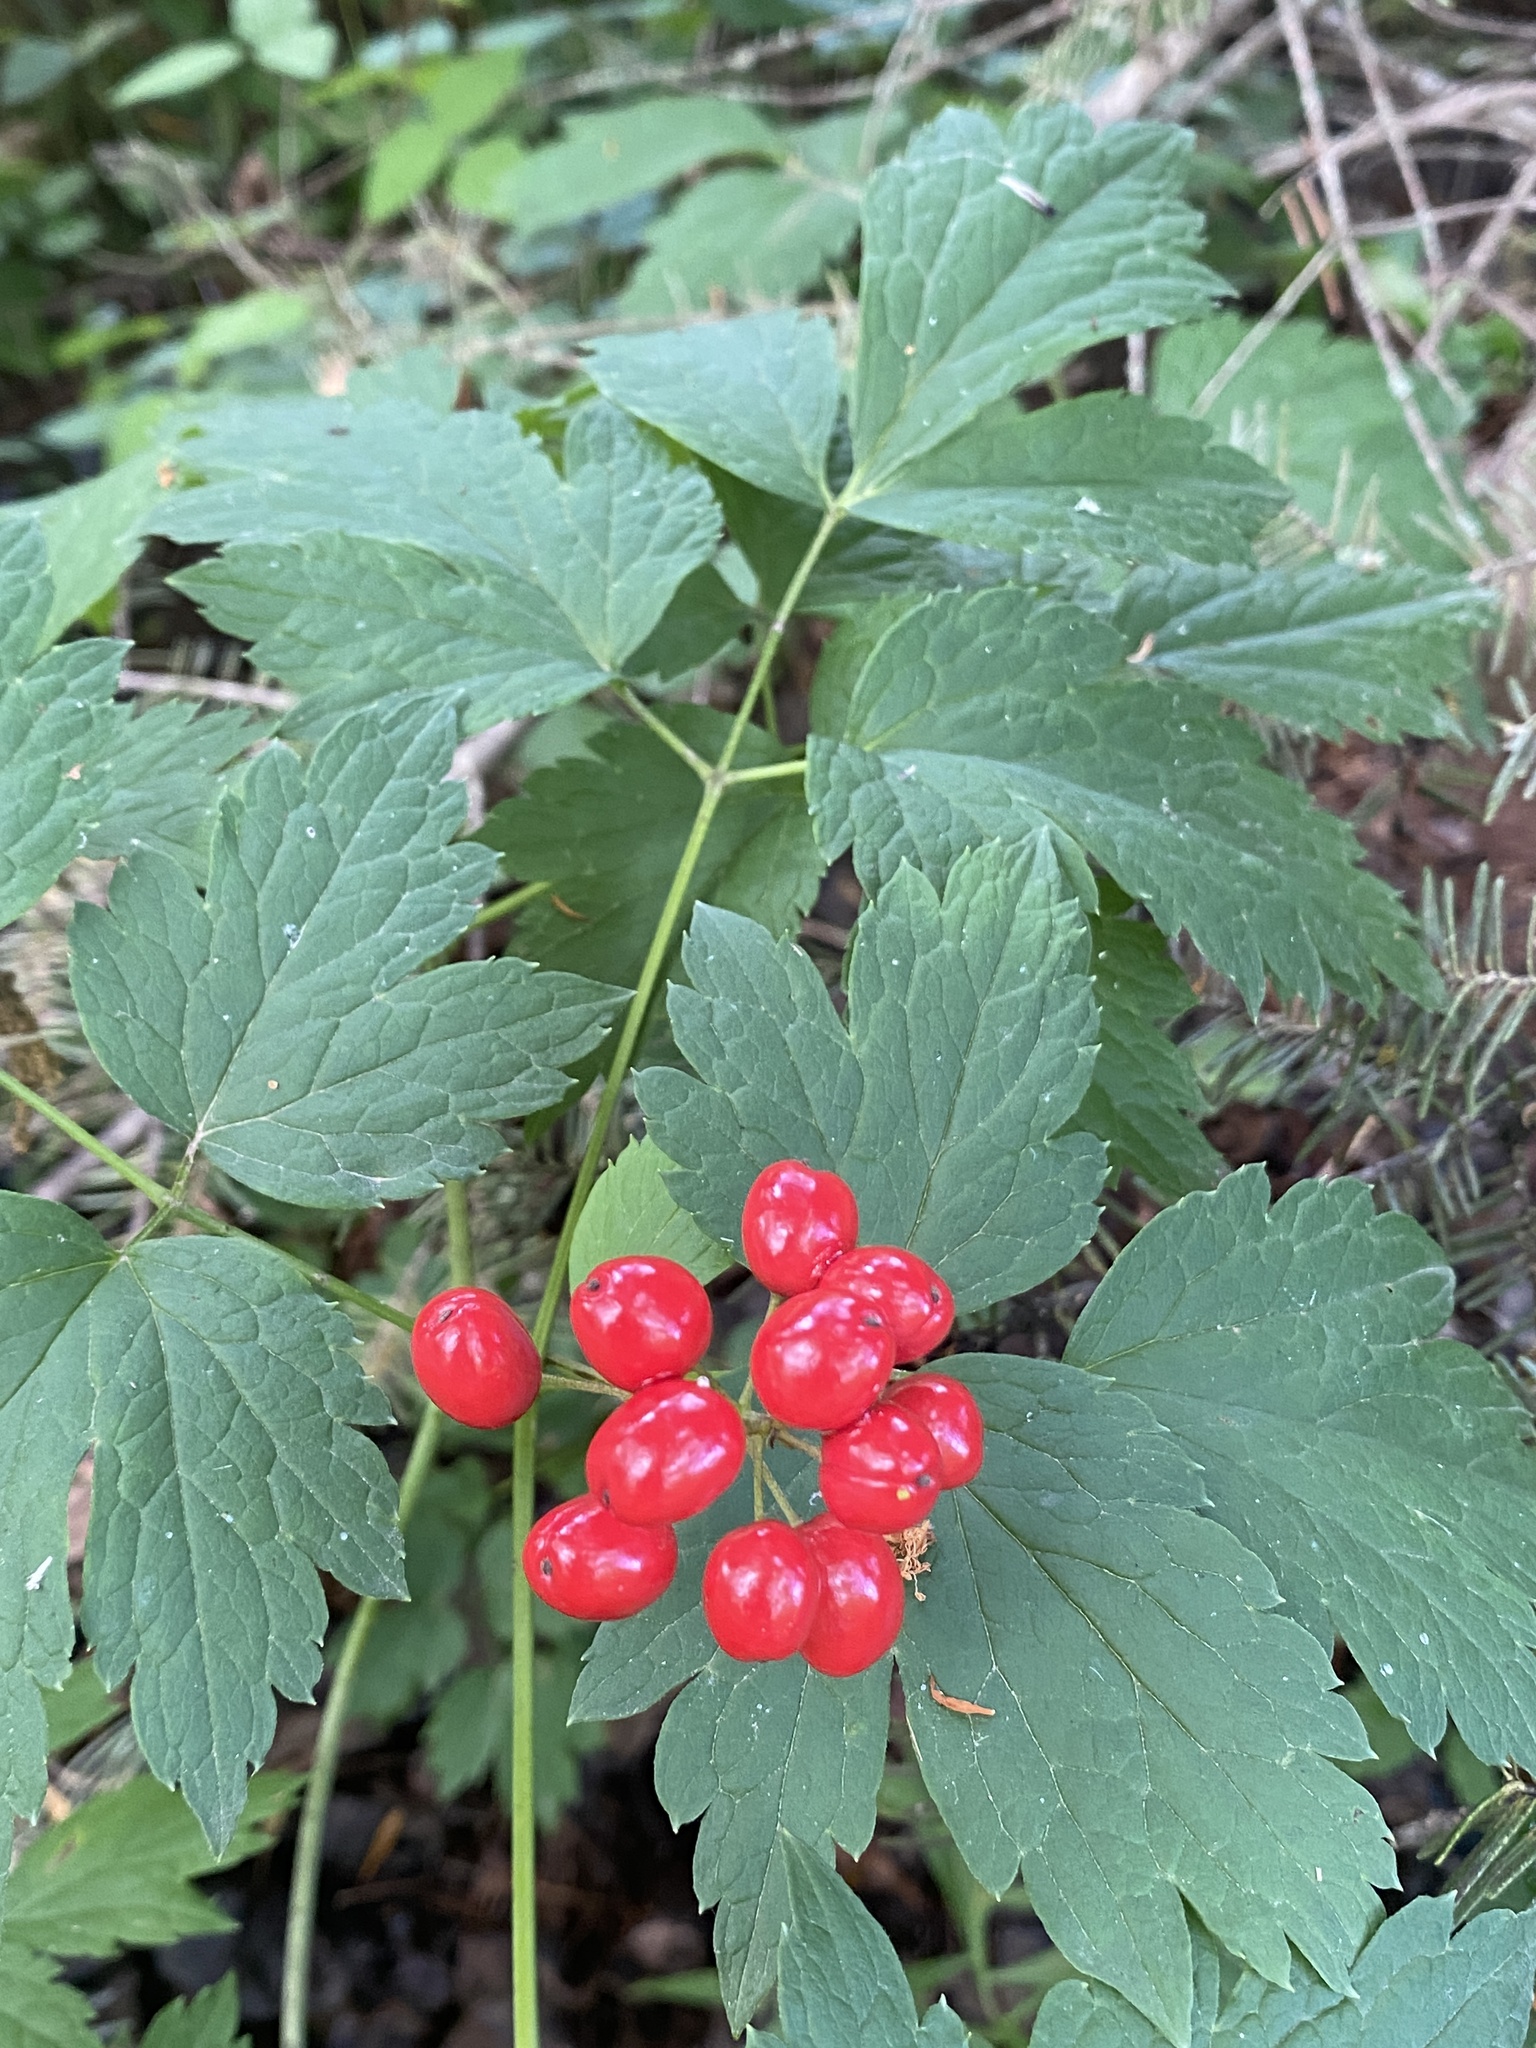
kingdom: Plantae
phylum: Tracheophyta
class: Magnoliopsida
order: Ranunculales
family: Ranunculaceae
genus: Actaea
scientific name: Actaea rubra
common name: Red baneberry
